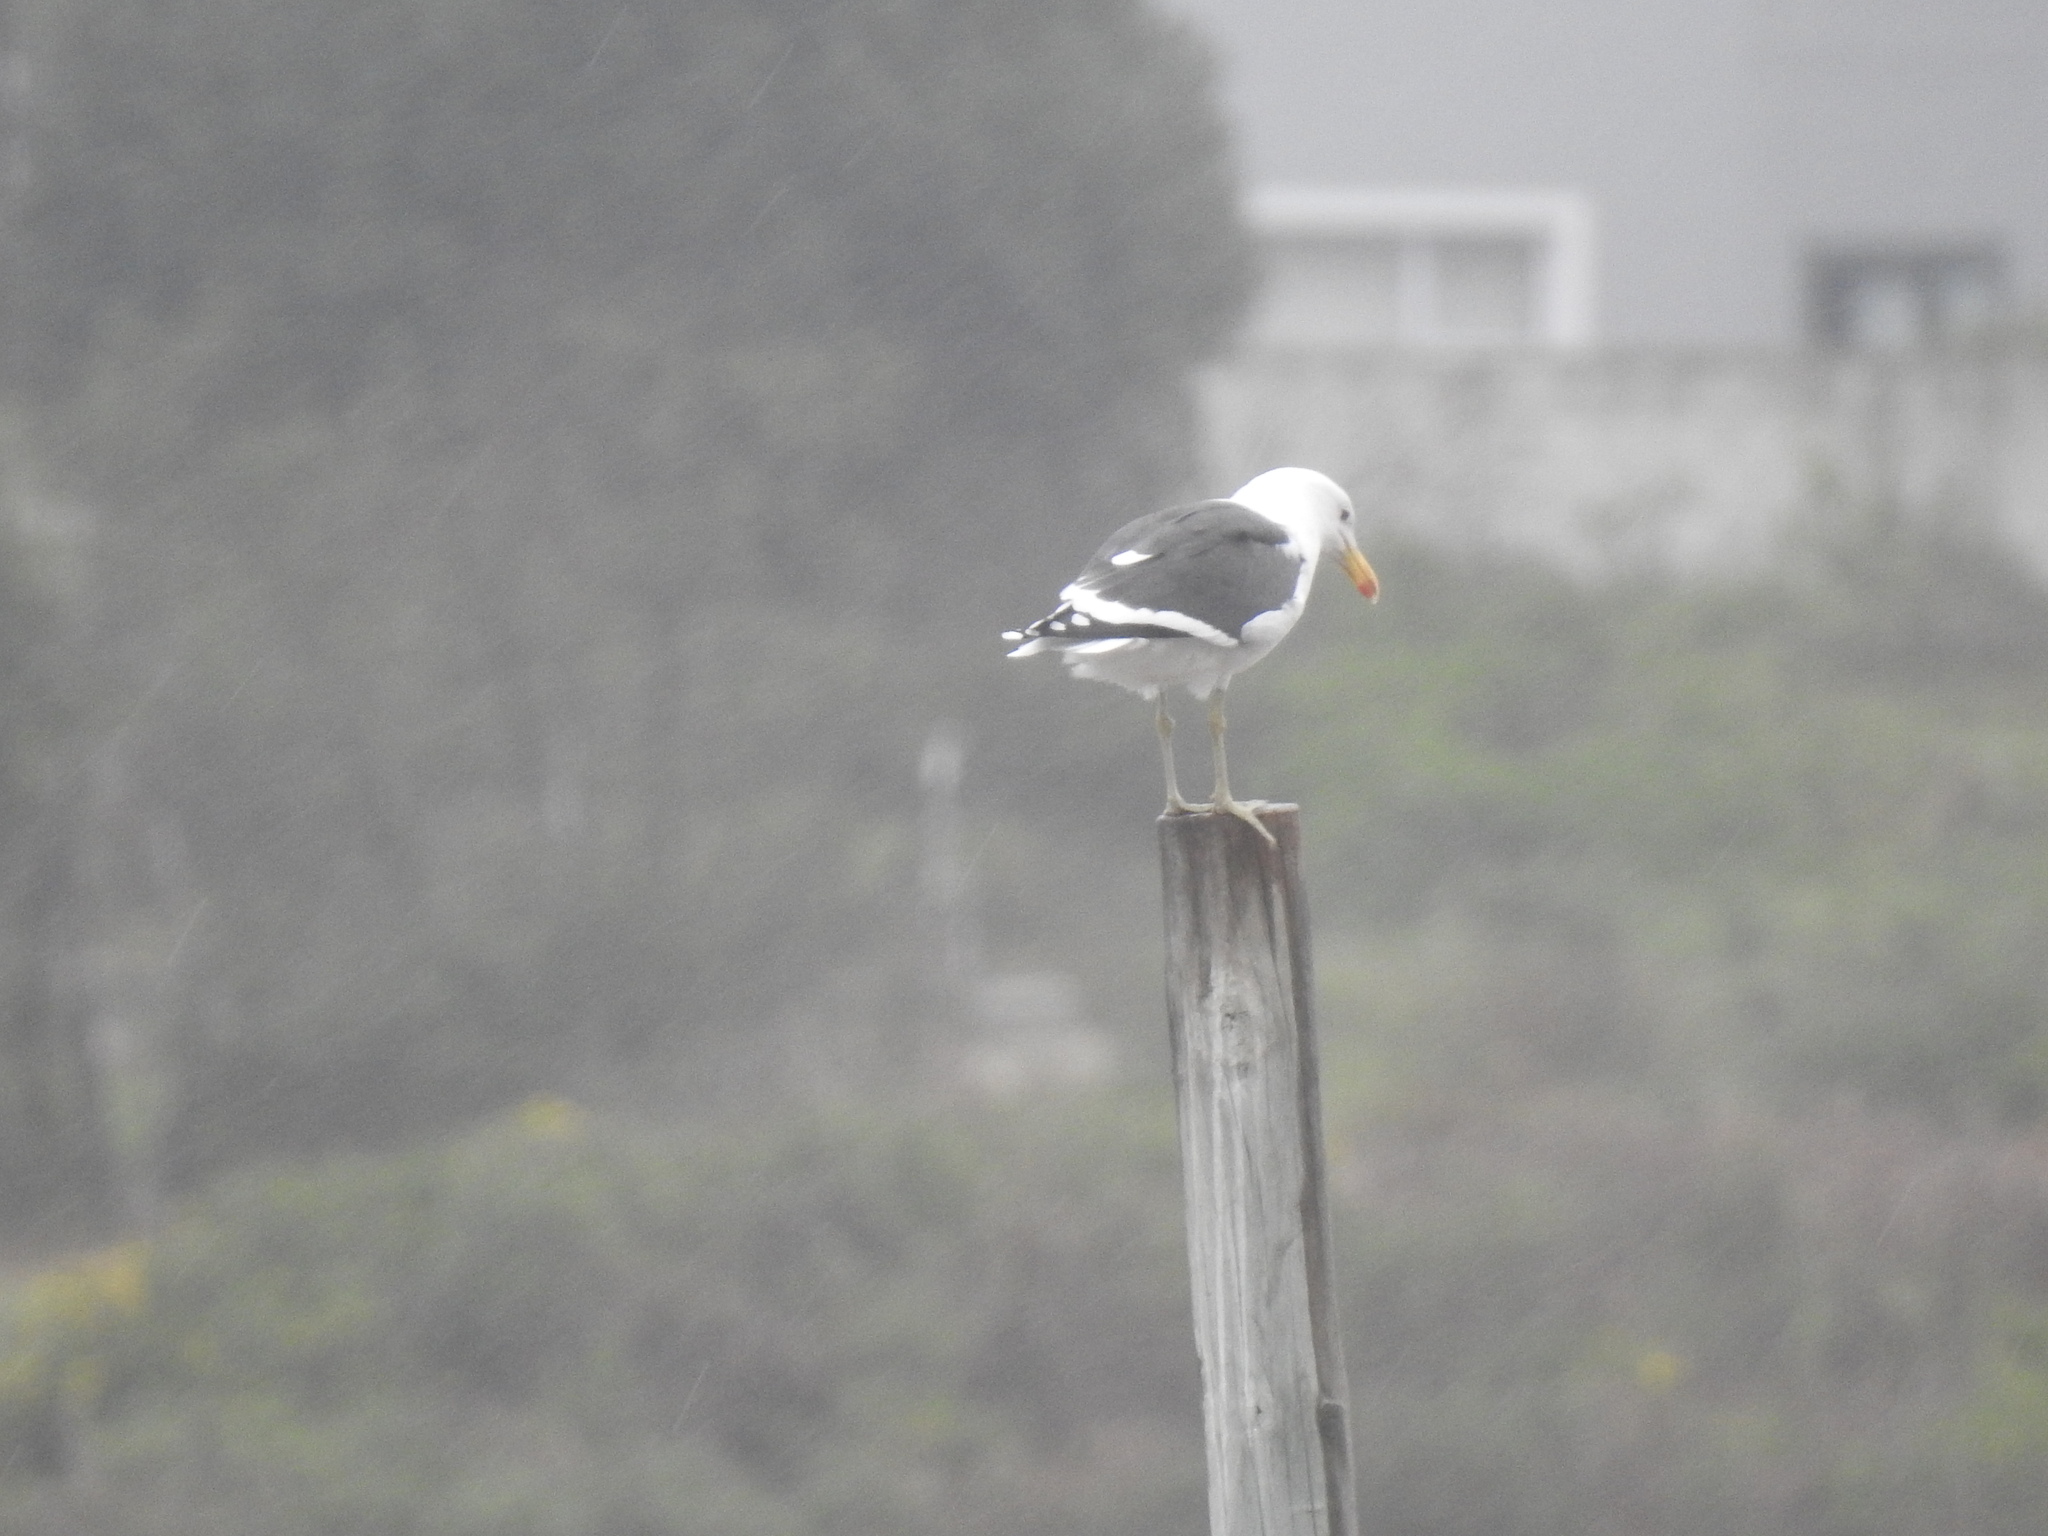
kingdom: Animalia
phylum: Chordata
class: Aves
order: Charadriiformes
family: Laridae
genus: Larus
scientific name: Larus dominicanus
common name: Kelp gull
